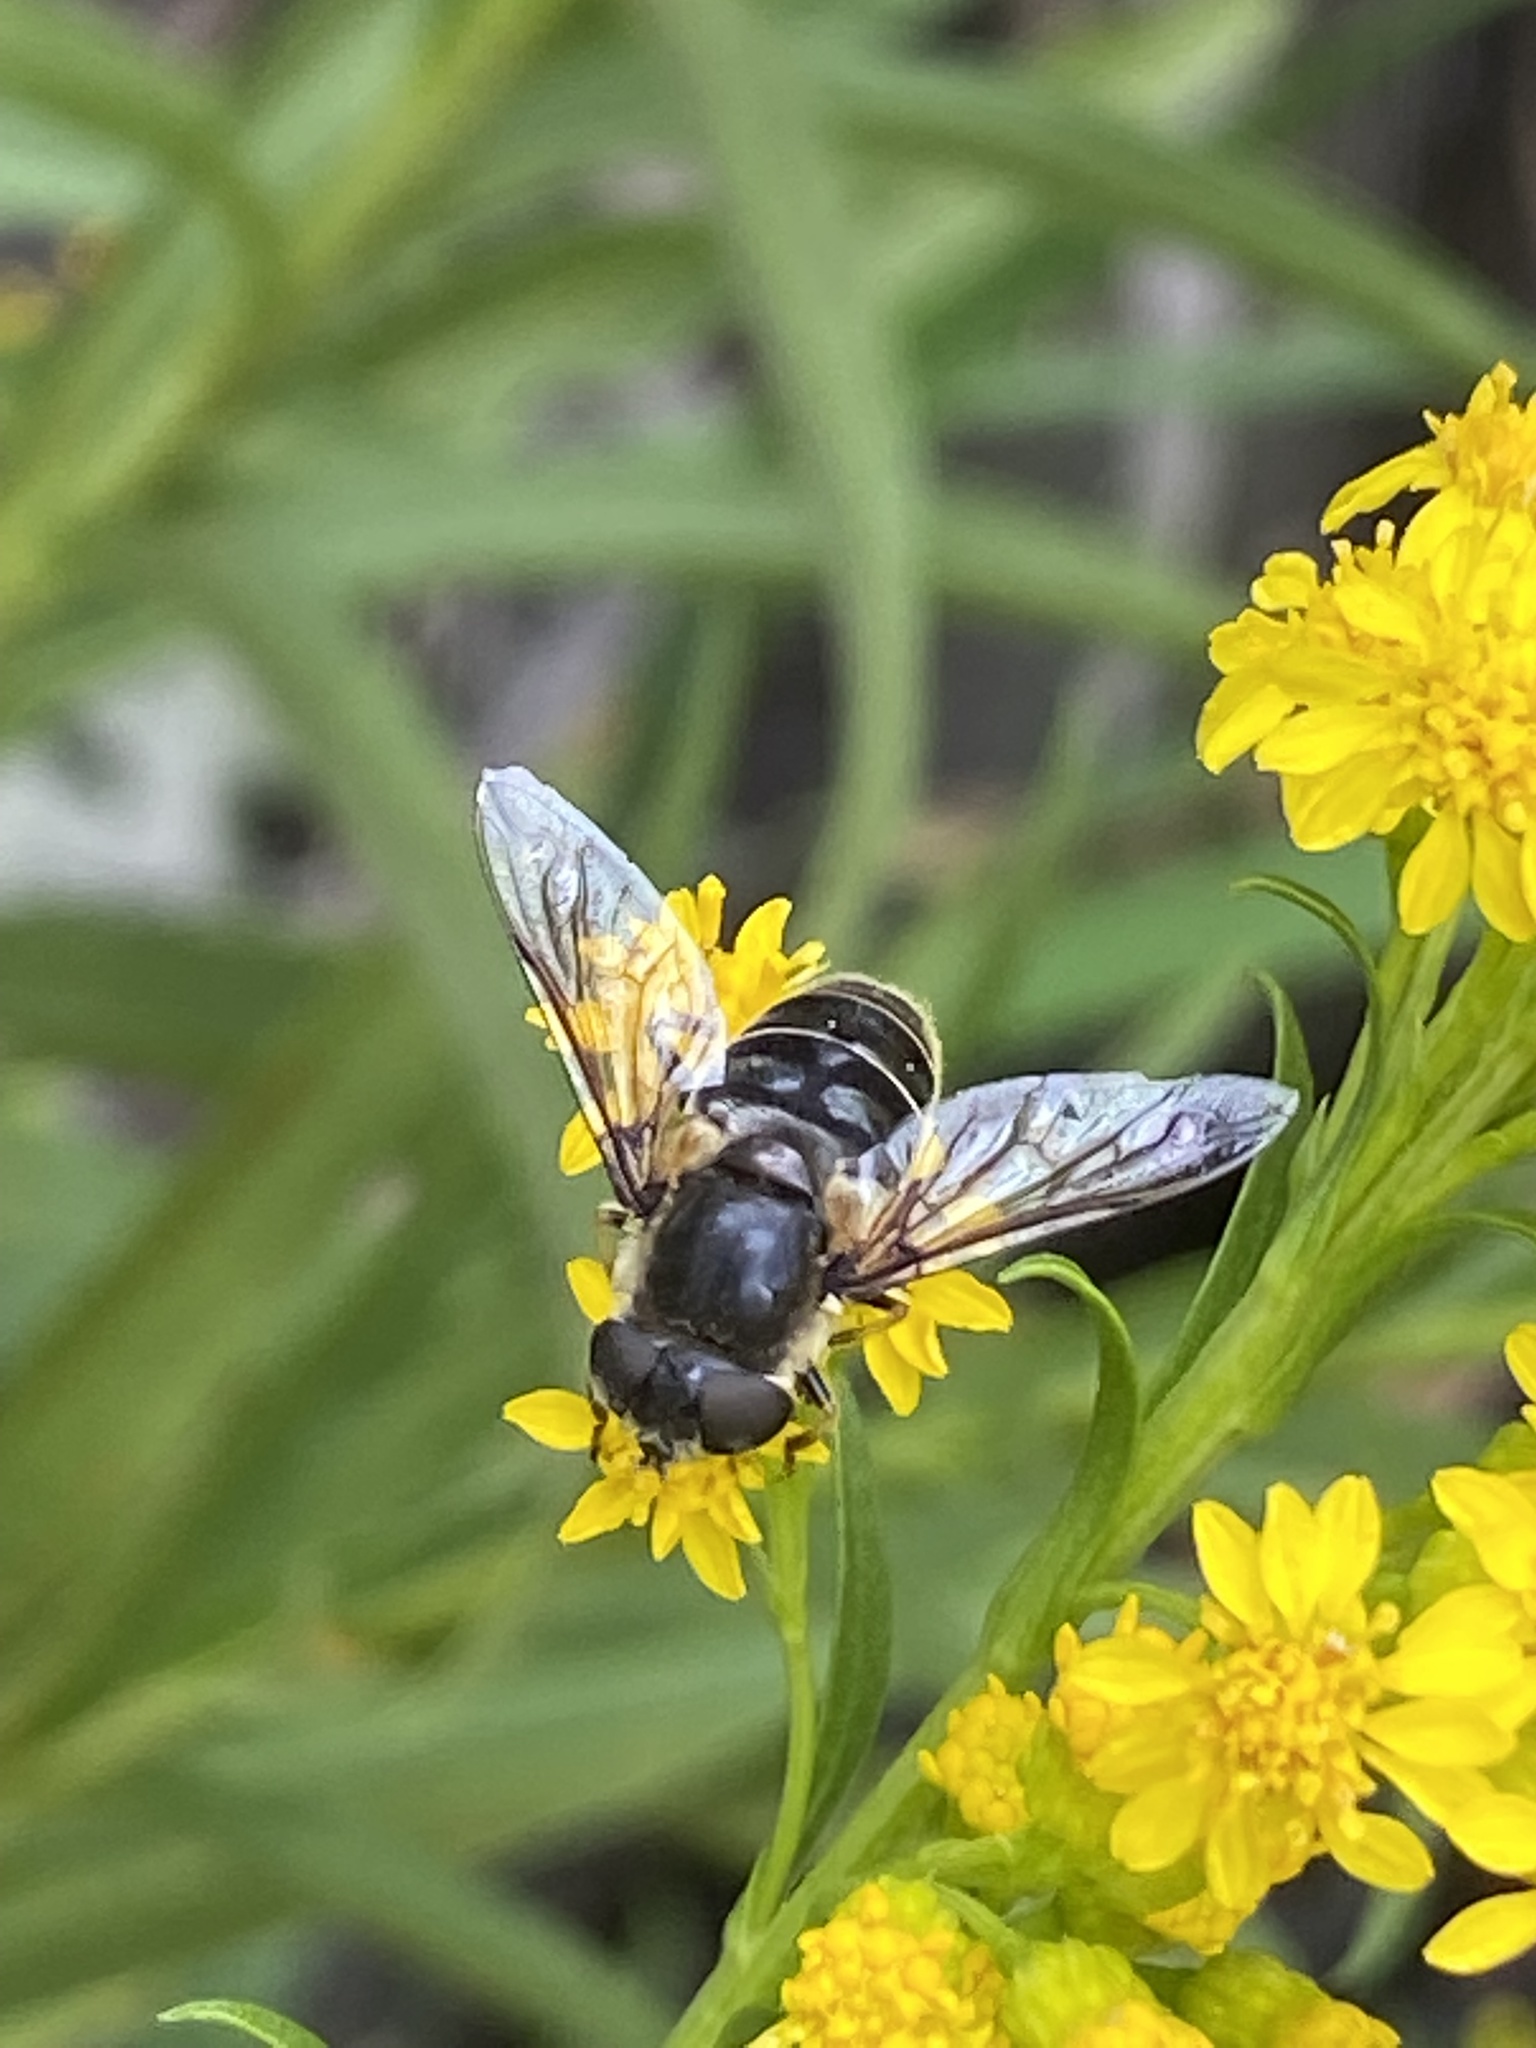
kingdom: Animalia
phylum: Arthropoda
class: Insecta
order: Diptera
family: Syrphidae
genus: Eristalis
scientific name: Eristalis dimidiata
